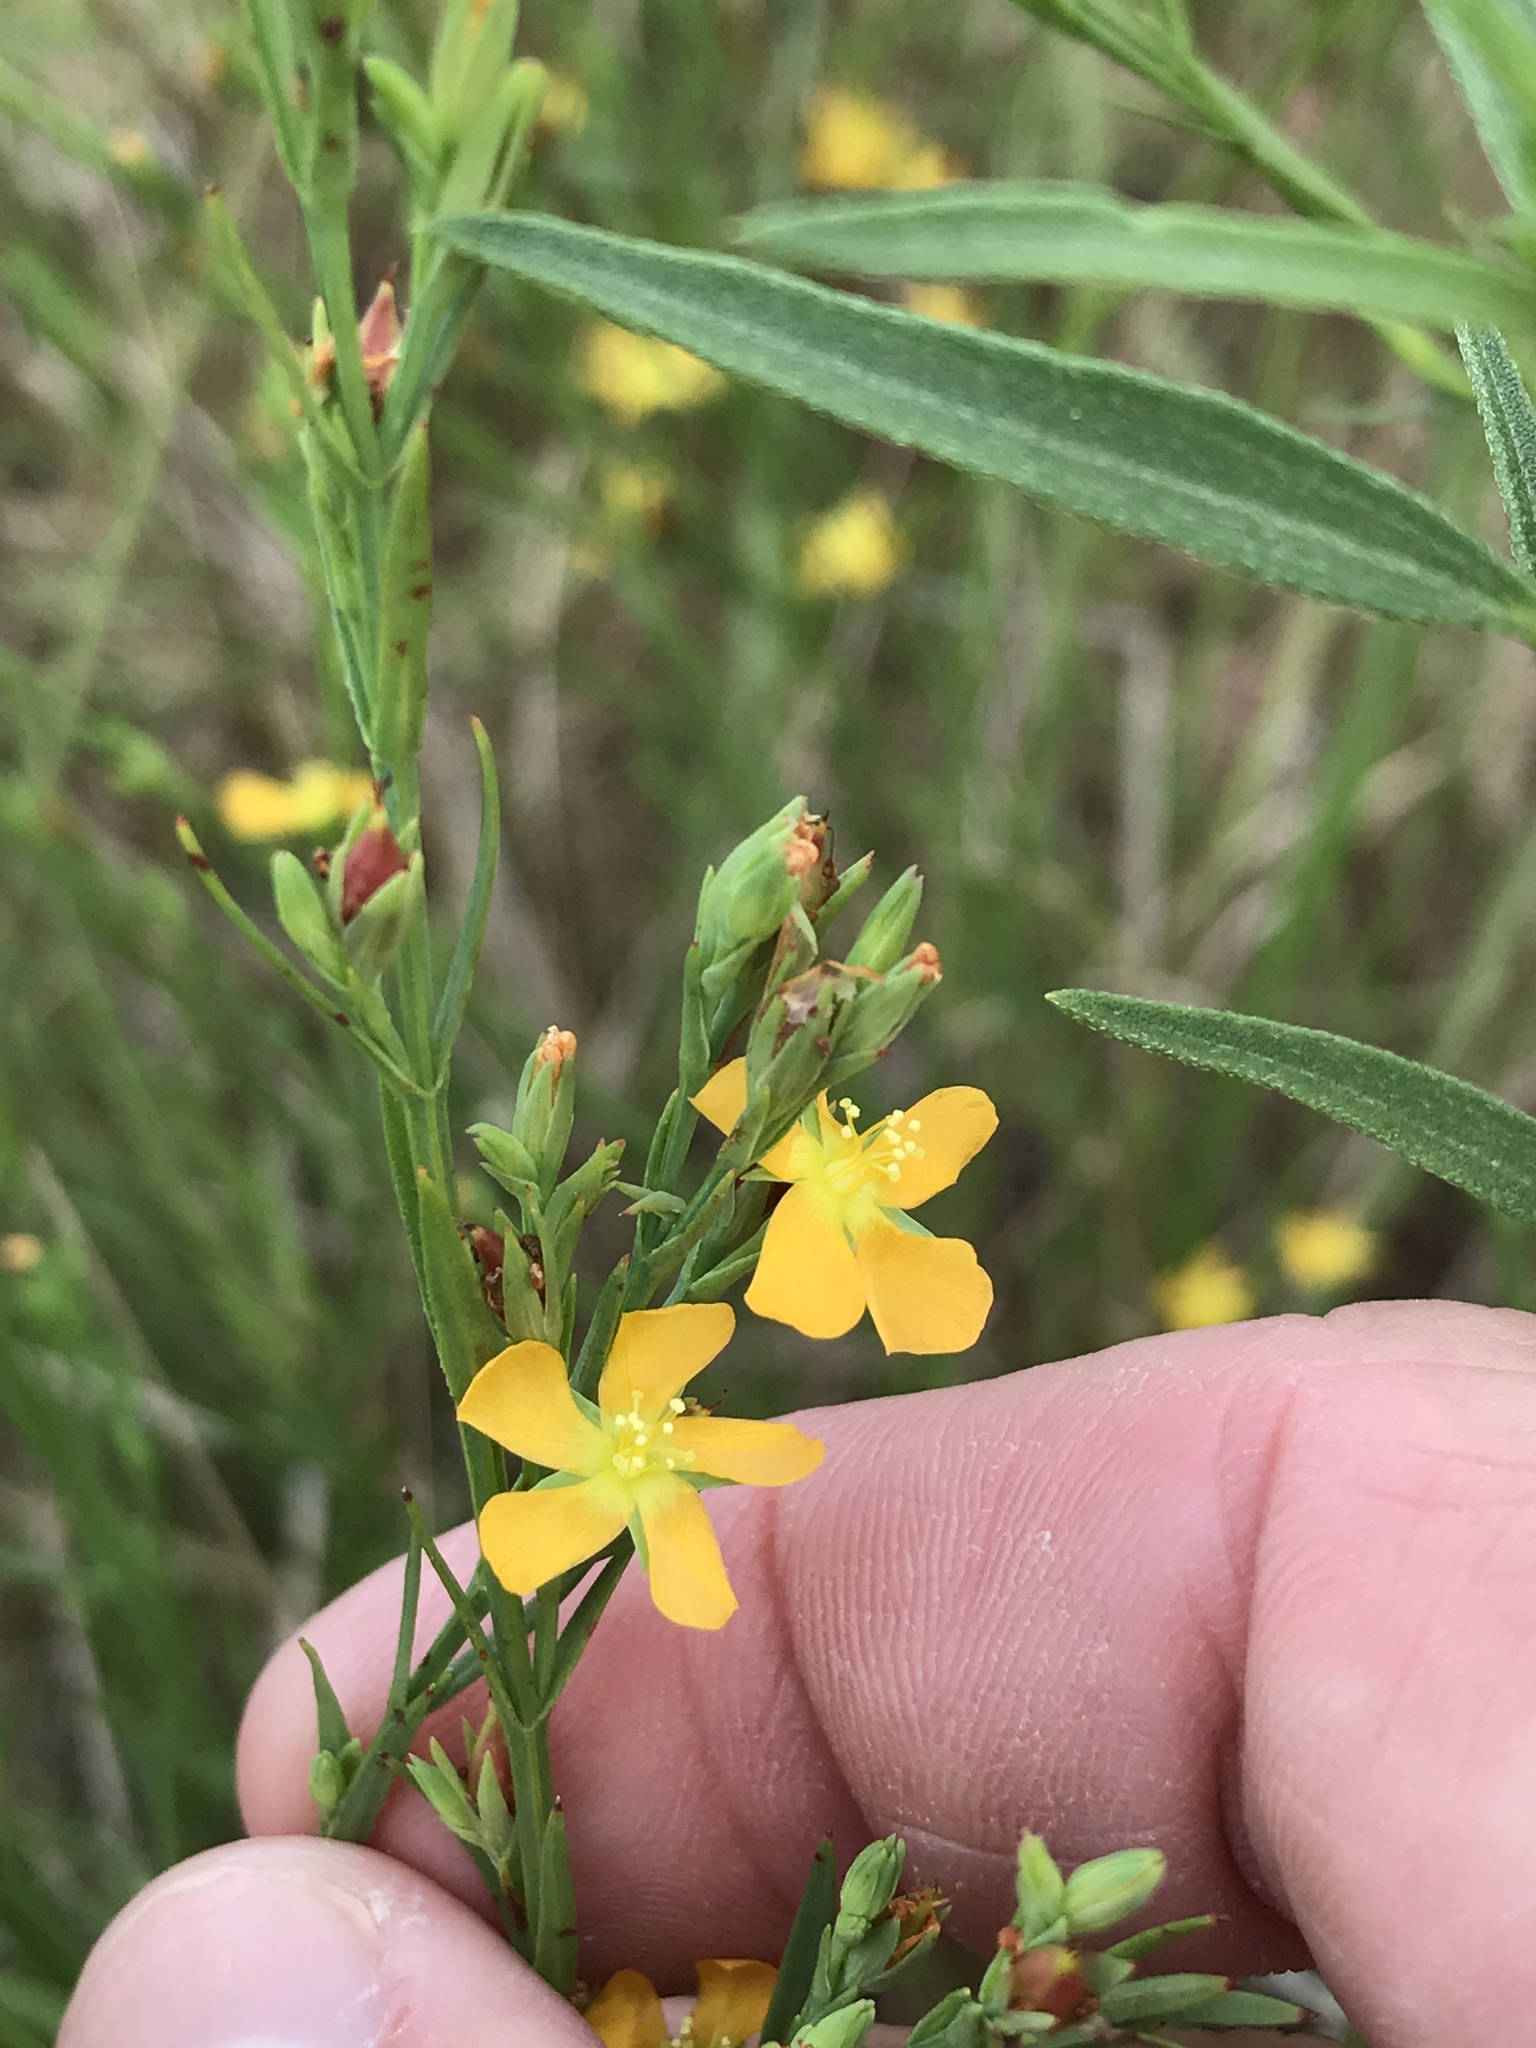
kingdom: Plantae
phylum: Tracheophyta
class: Magnoliopsida
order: Malpighiales
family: Hypericaceae
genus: Hypericum
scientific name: Hypericum drummondii
